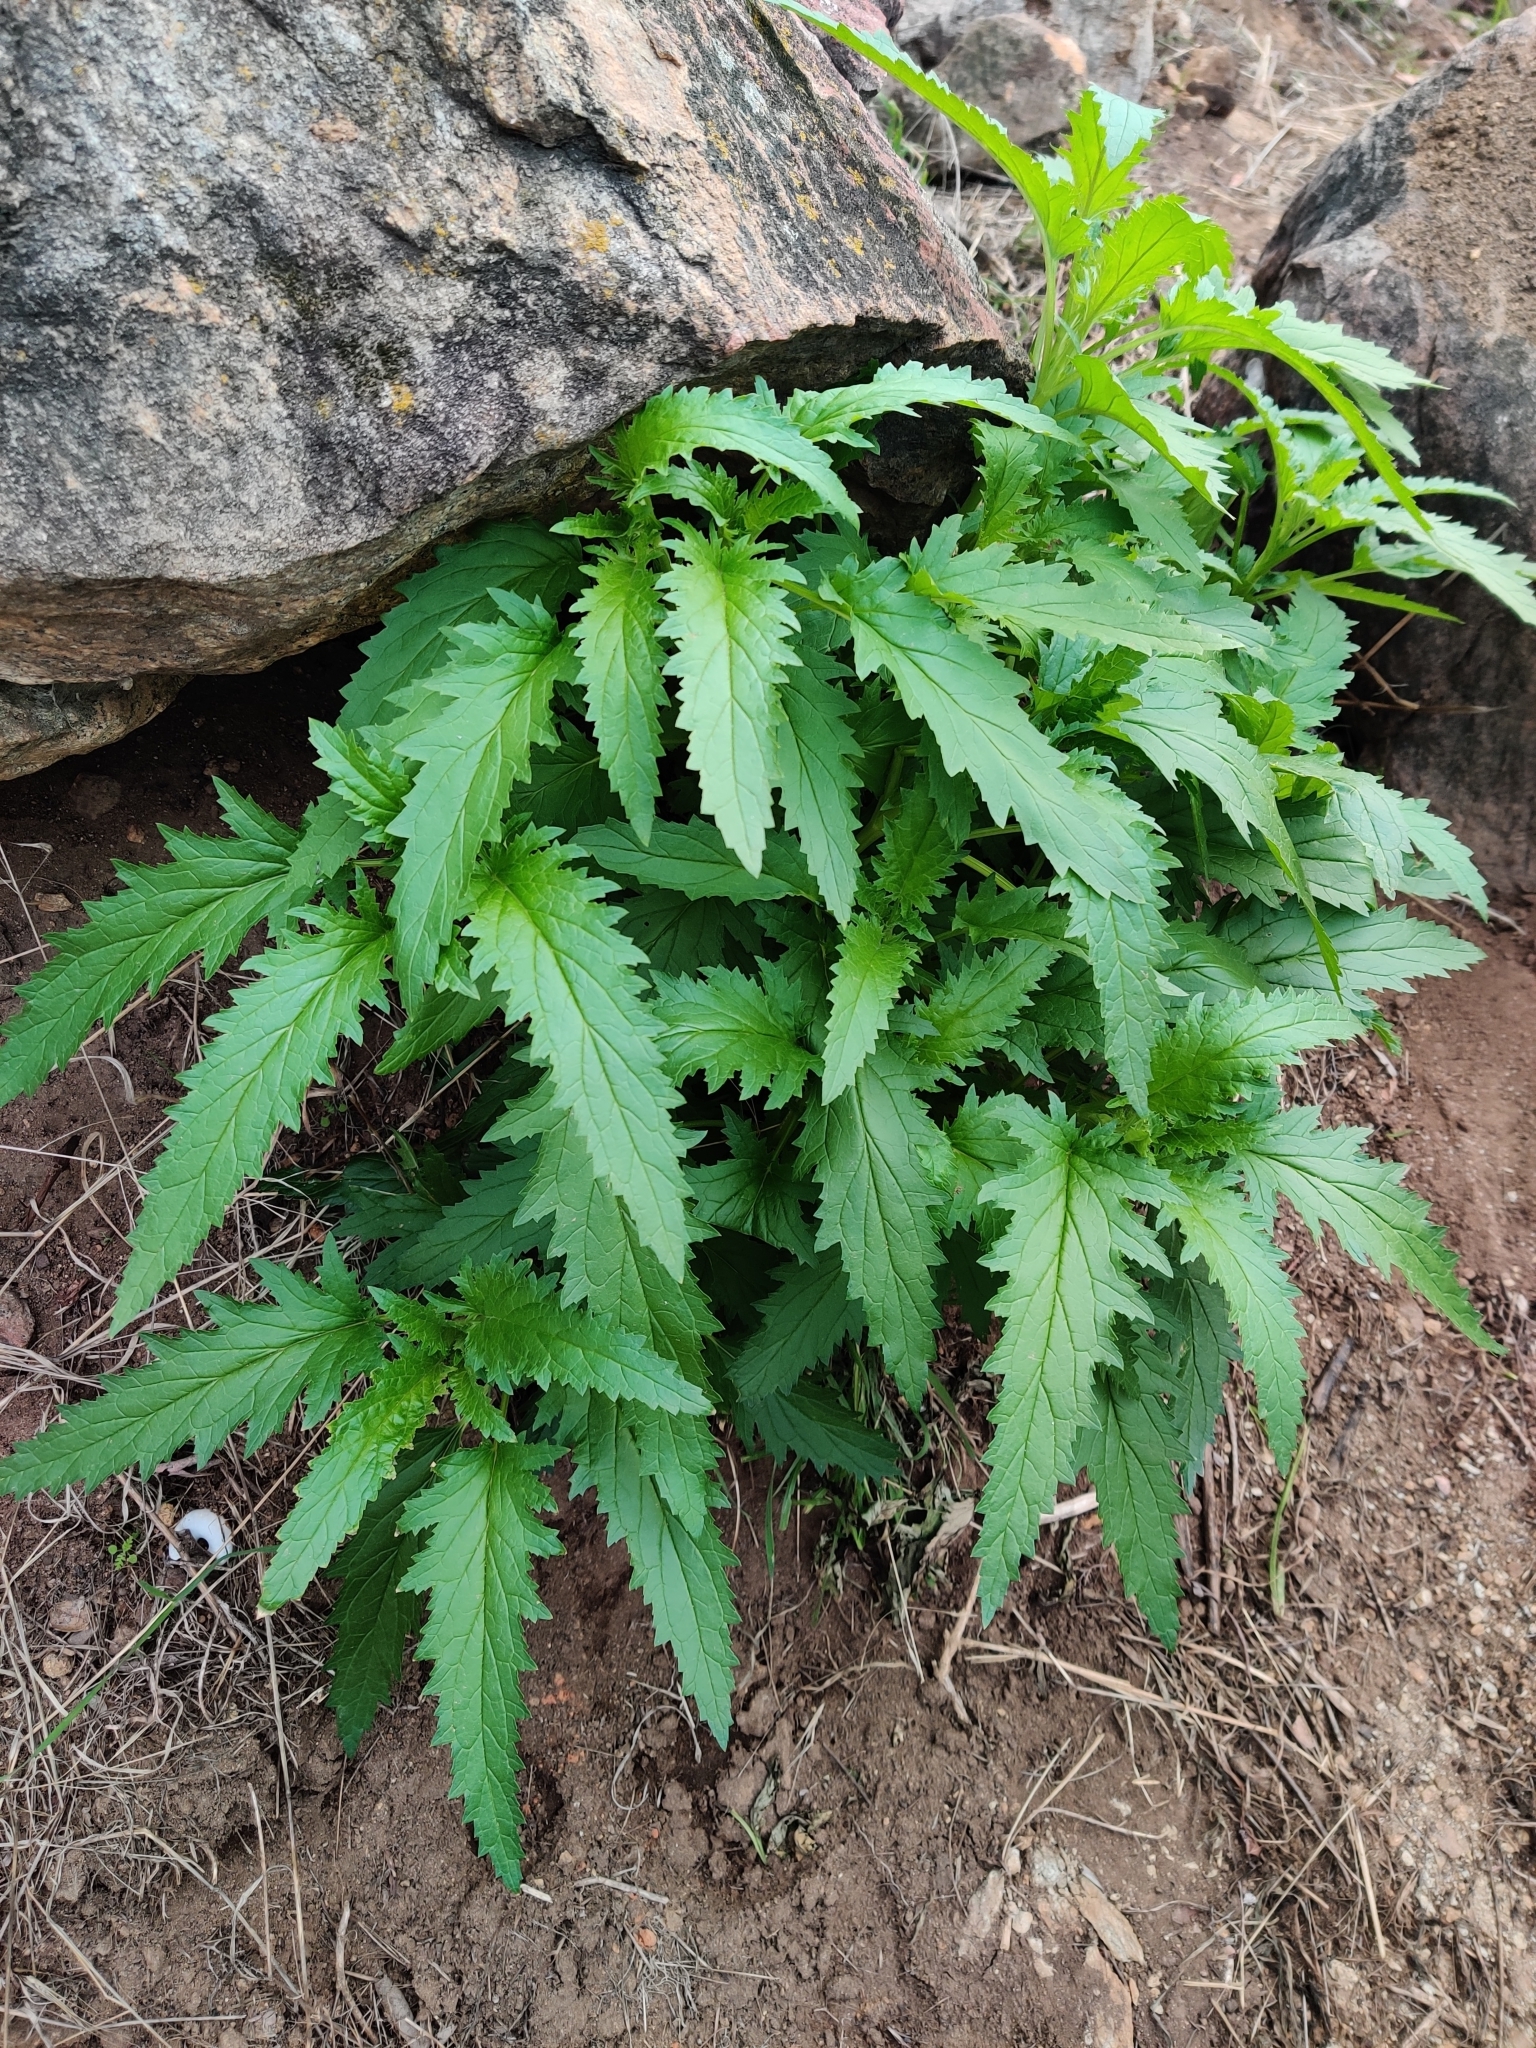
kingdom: Plantae
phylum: Tracheophyta
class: Magnoliopsida
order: Lamiales
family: Scrophulariaceae
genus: Scrophularia
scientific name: Scrophularia californica
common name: California figwort
